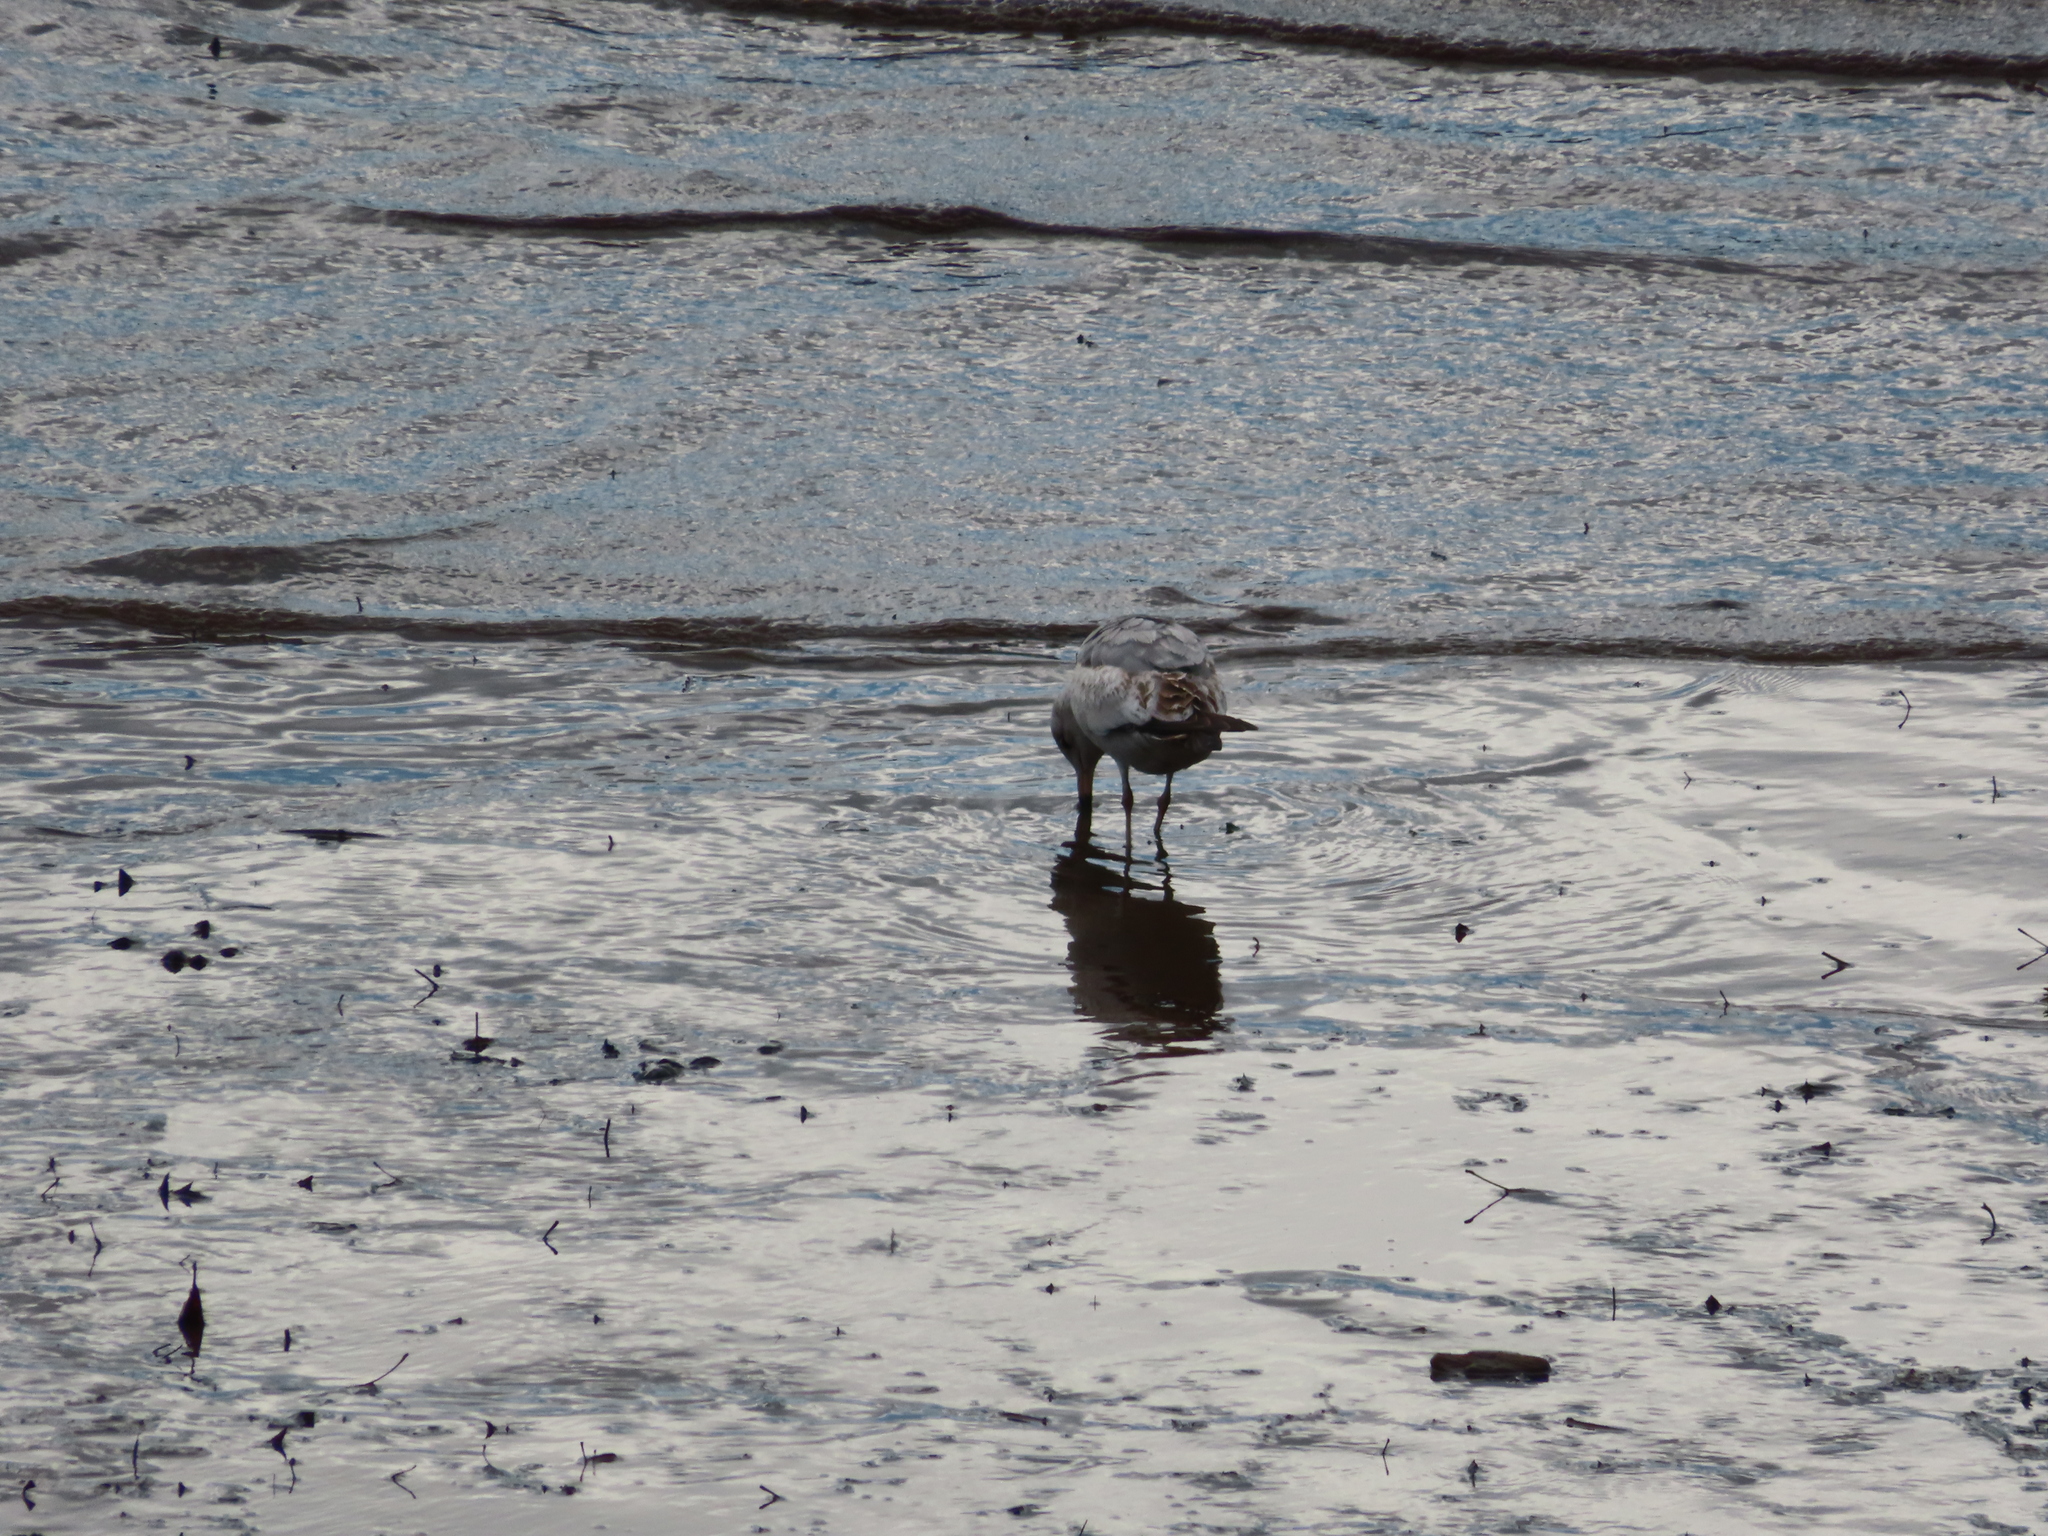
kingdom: Animalia
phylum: Chordata
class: Aves
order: Charadriiformes
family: Laridae
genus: Larus
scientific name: Larus delawarensis
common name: Ring-billed gull
